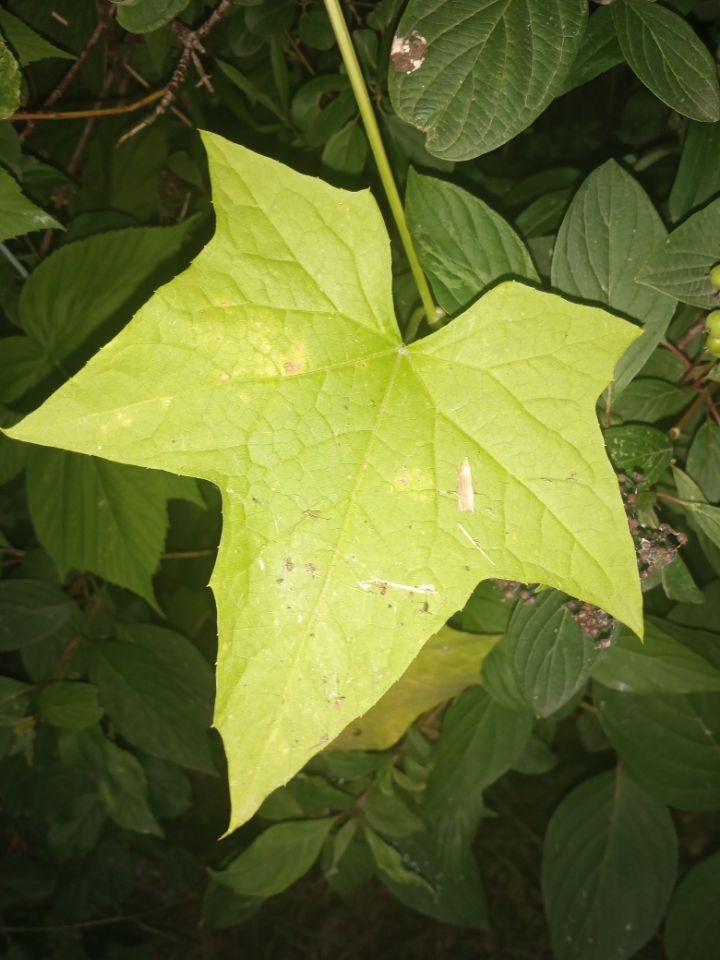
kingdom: Plantae
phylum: Tracheophyta
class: Magnoliopsida
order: Cucurbitales
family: Cucurbitaceae
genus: Echinocystis
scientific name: Echinocystis lobata
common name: Wild cucumber
